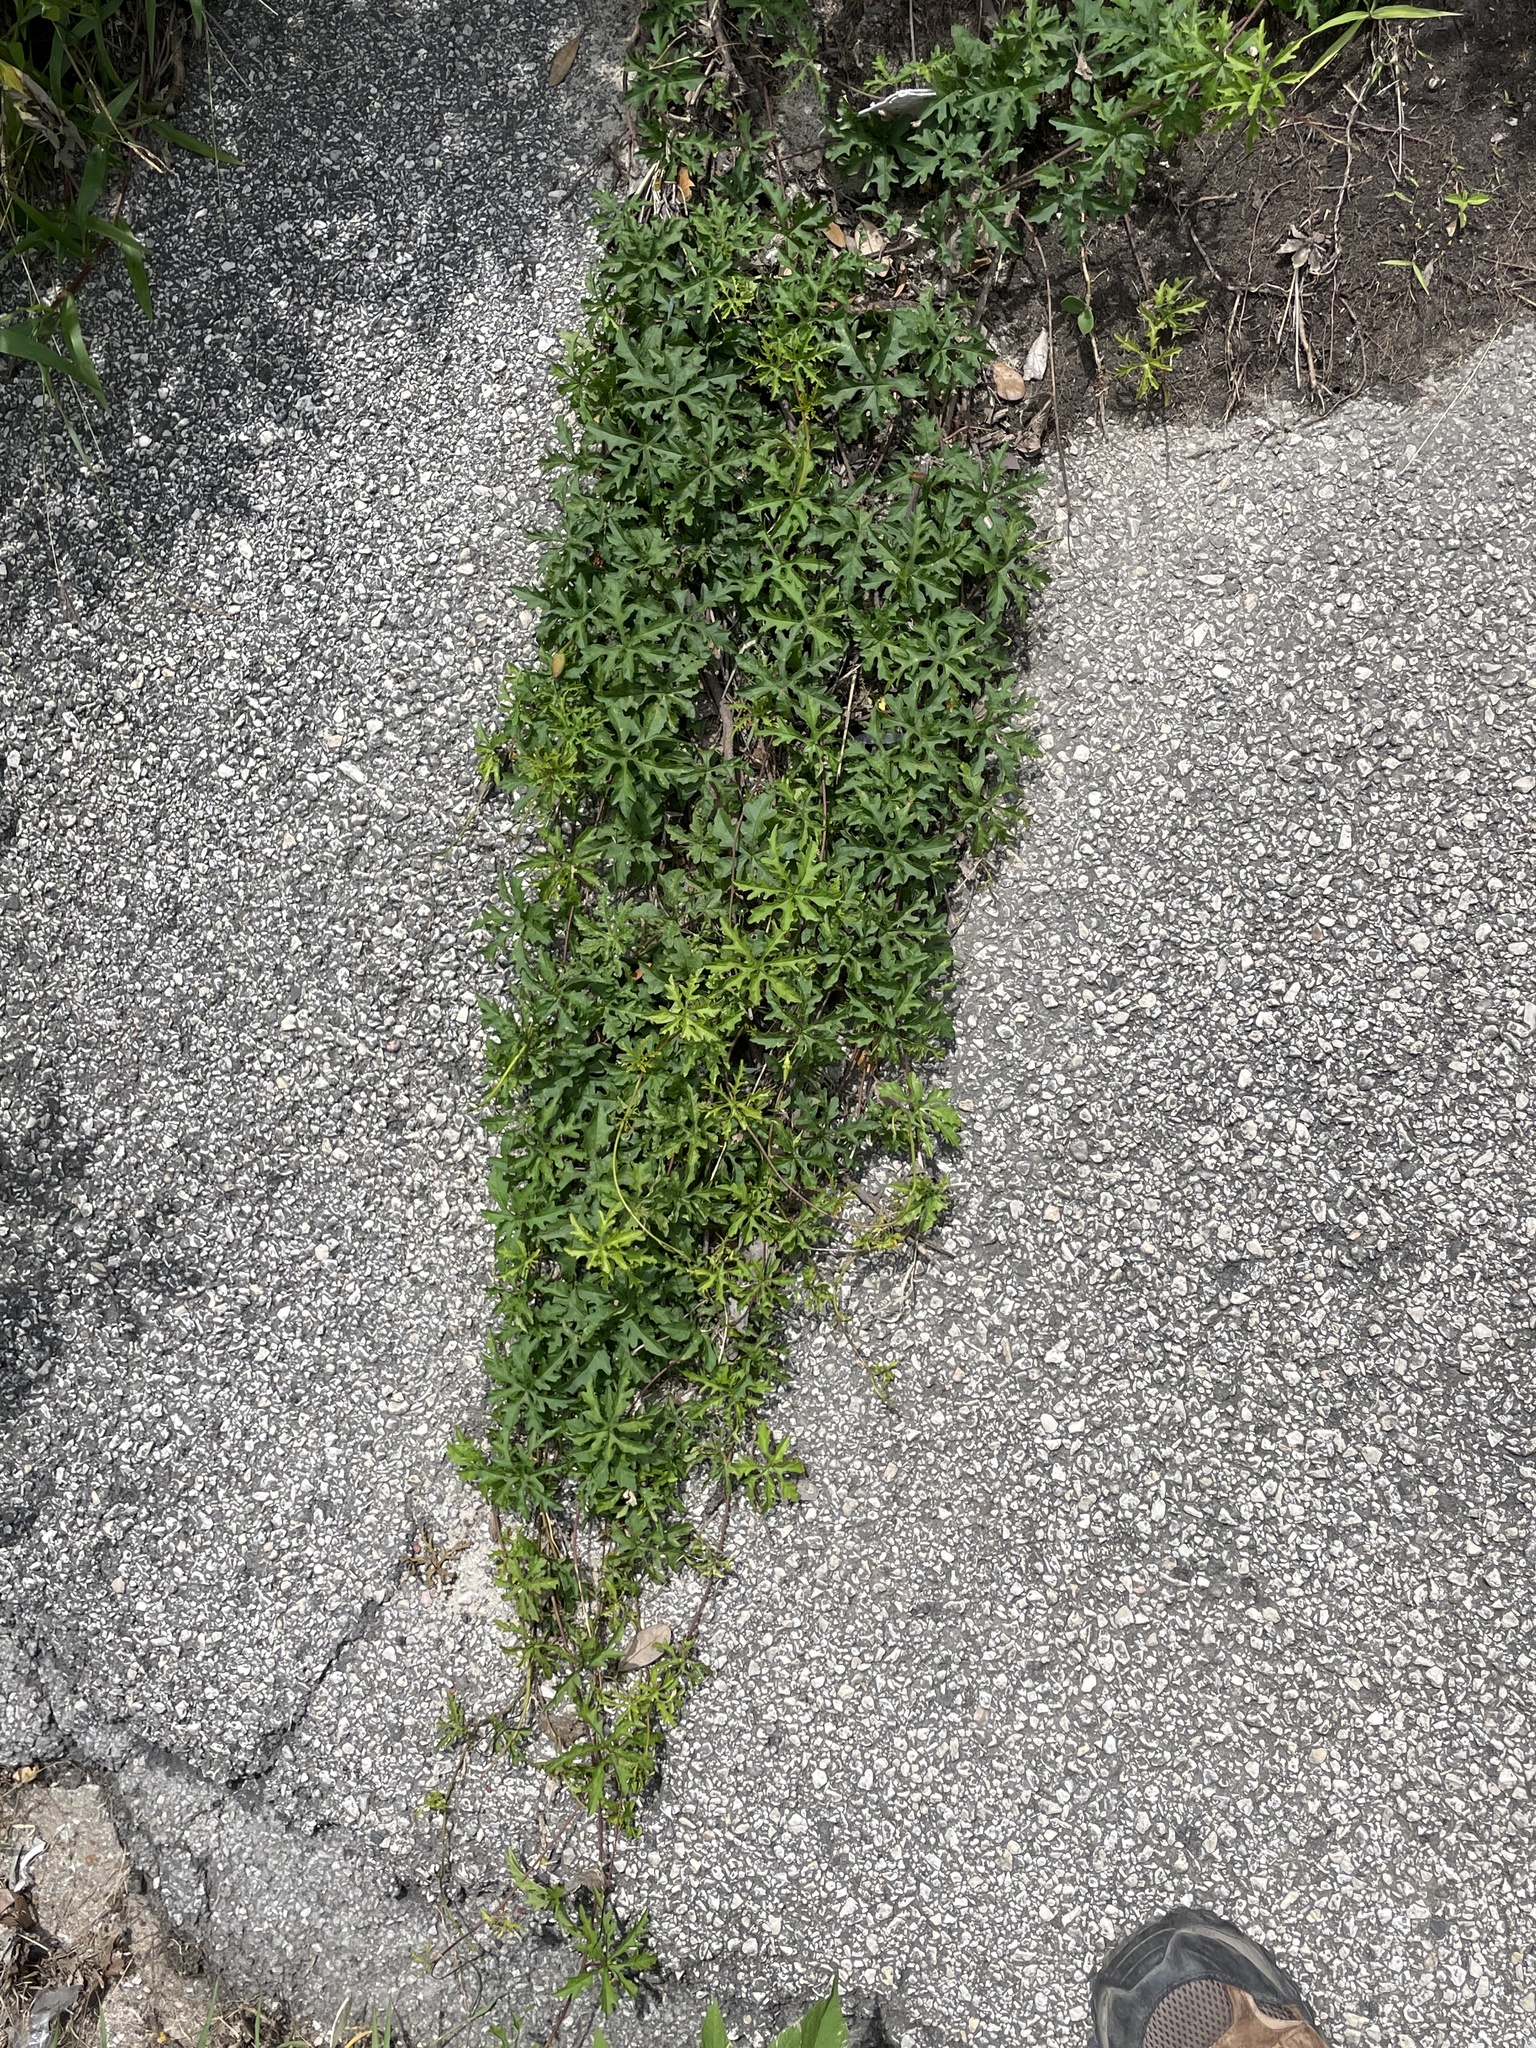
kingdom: Plantae
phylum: Tracheophyta
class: Magnoliopsida
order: Solanales
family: Convolvulaceae
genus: Distimake
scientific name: Distimake dissectus
